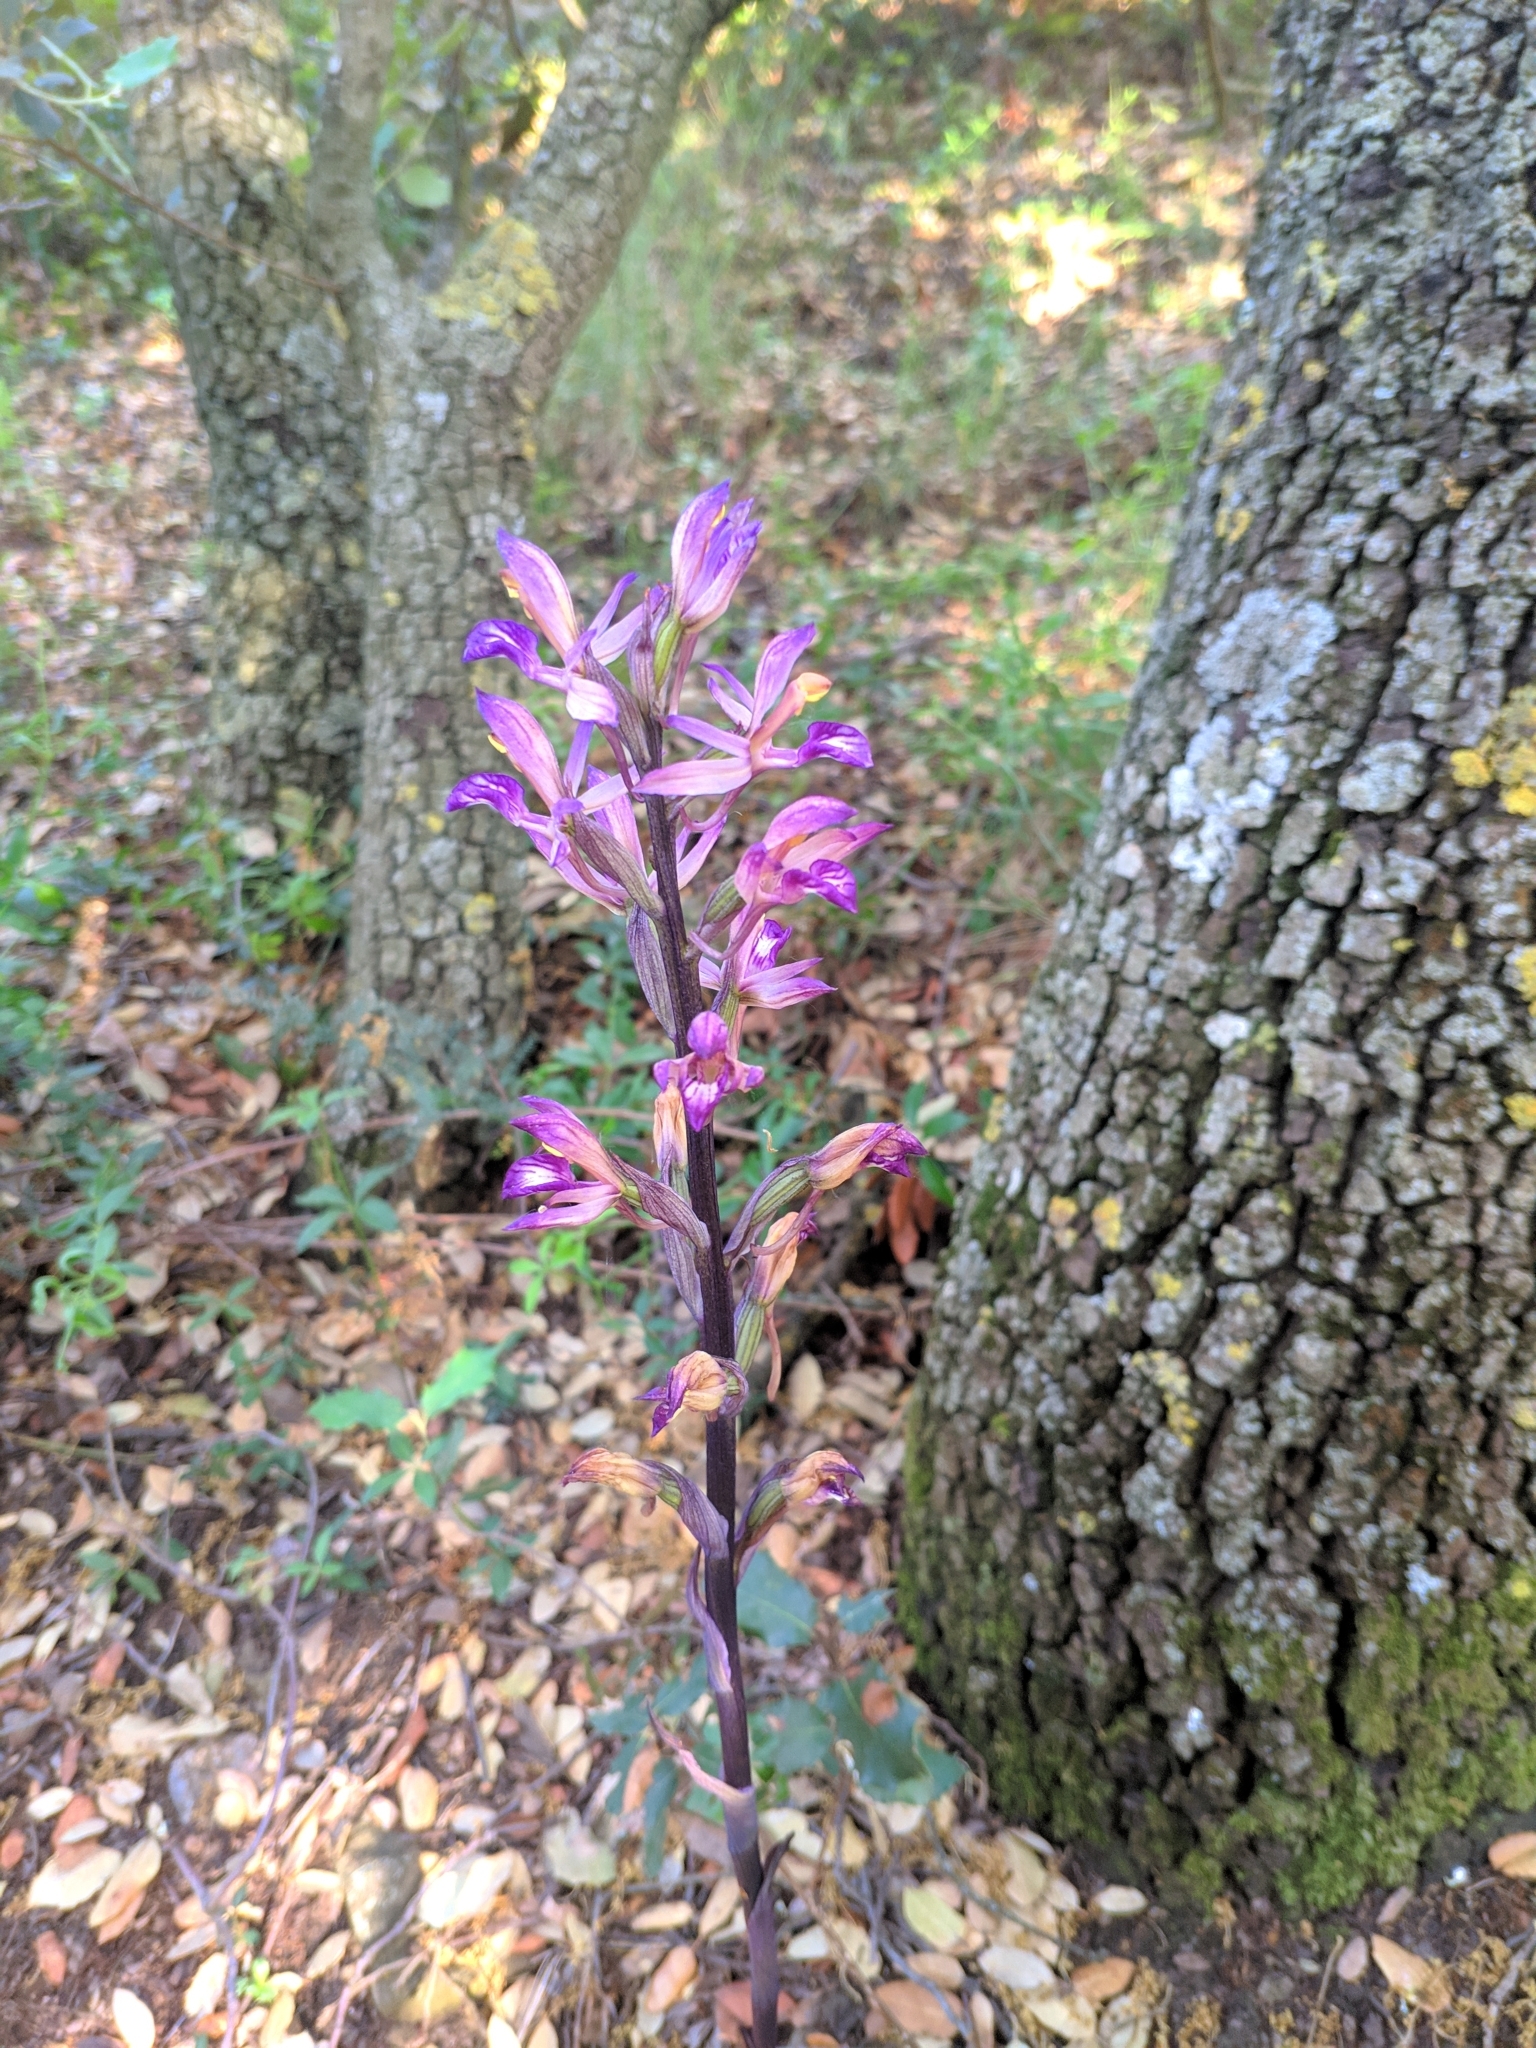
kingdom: Plantae
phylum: Tracheophyta
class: Liliopsida
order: Asparagales
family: Orchidaceae
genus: Limodorum
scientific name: Limodorum abortivum
